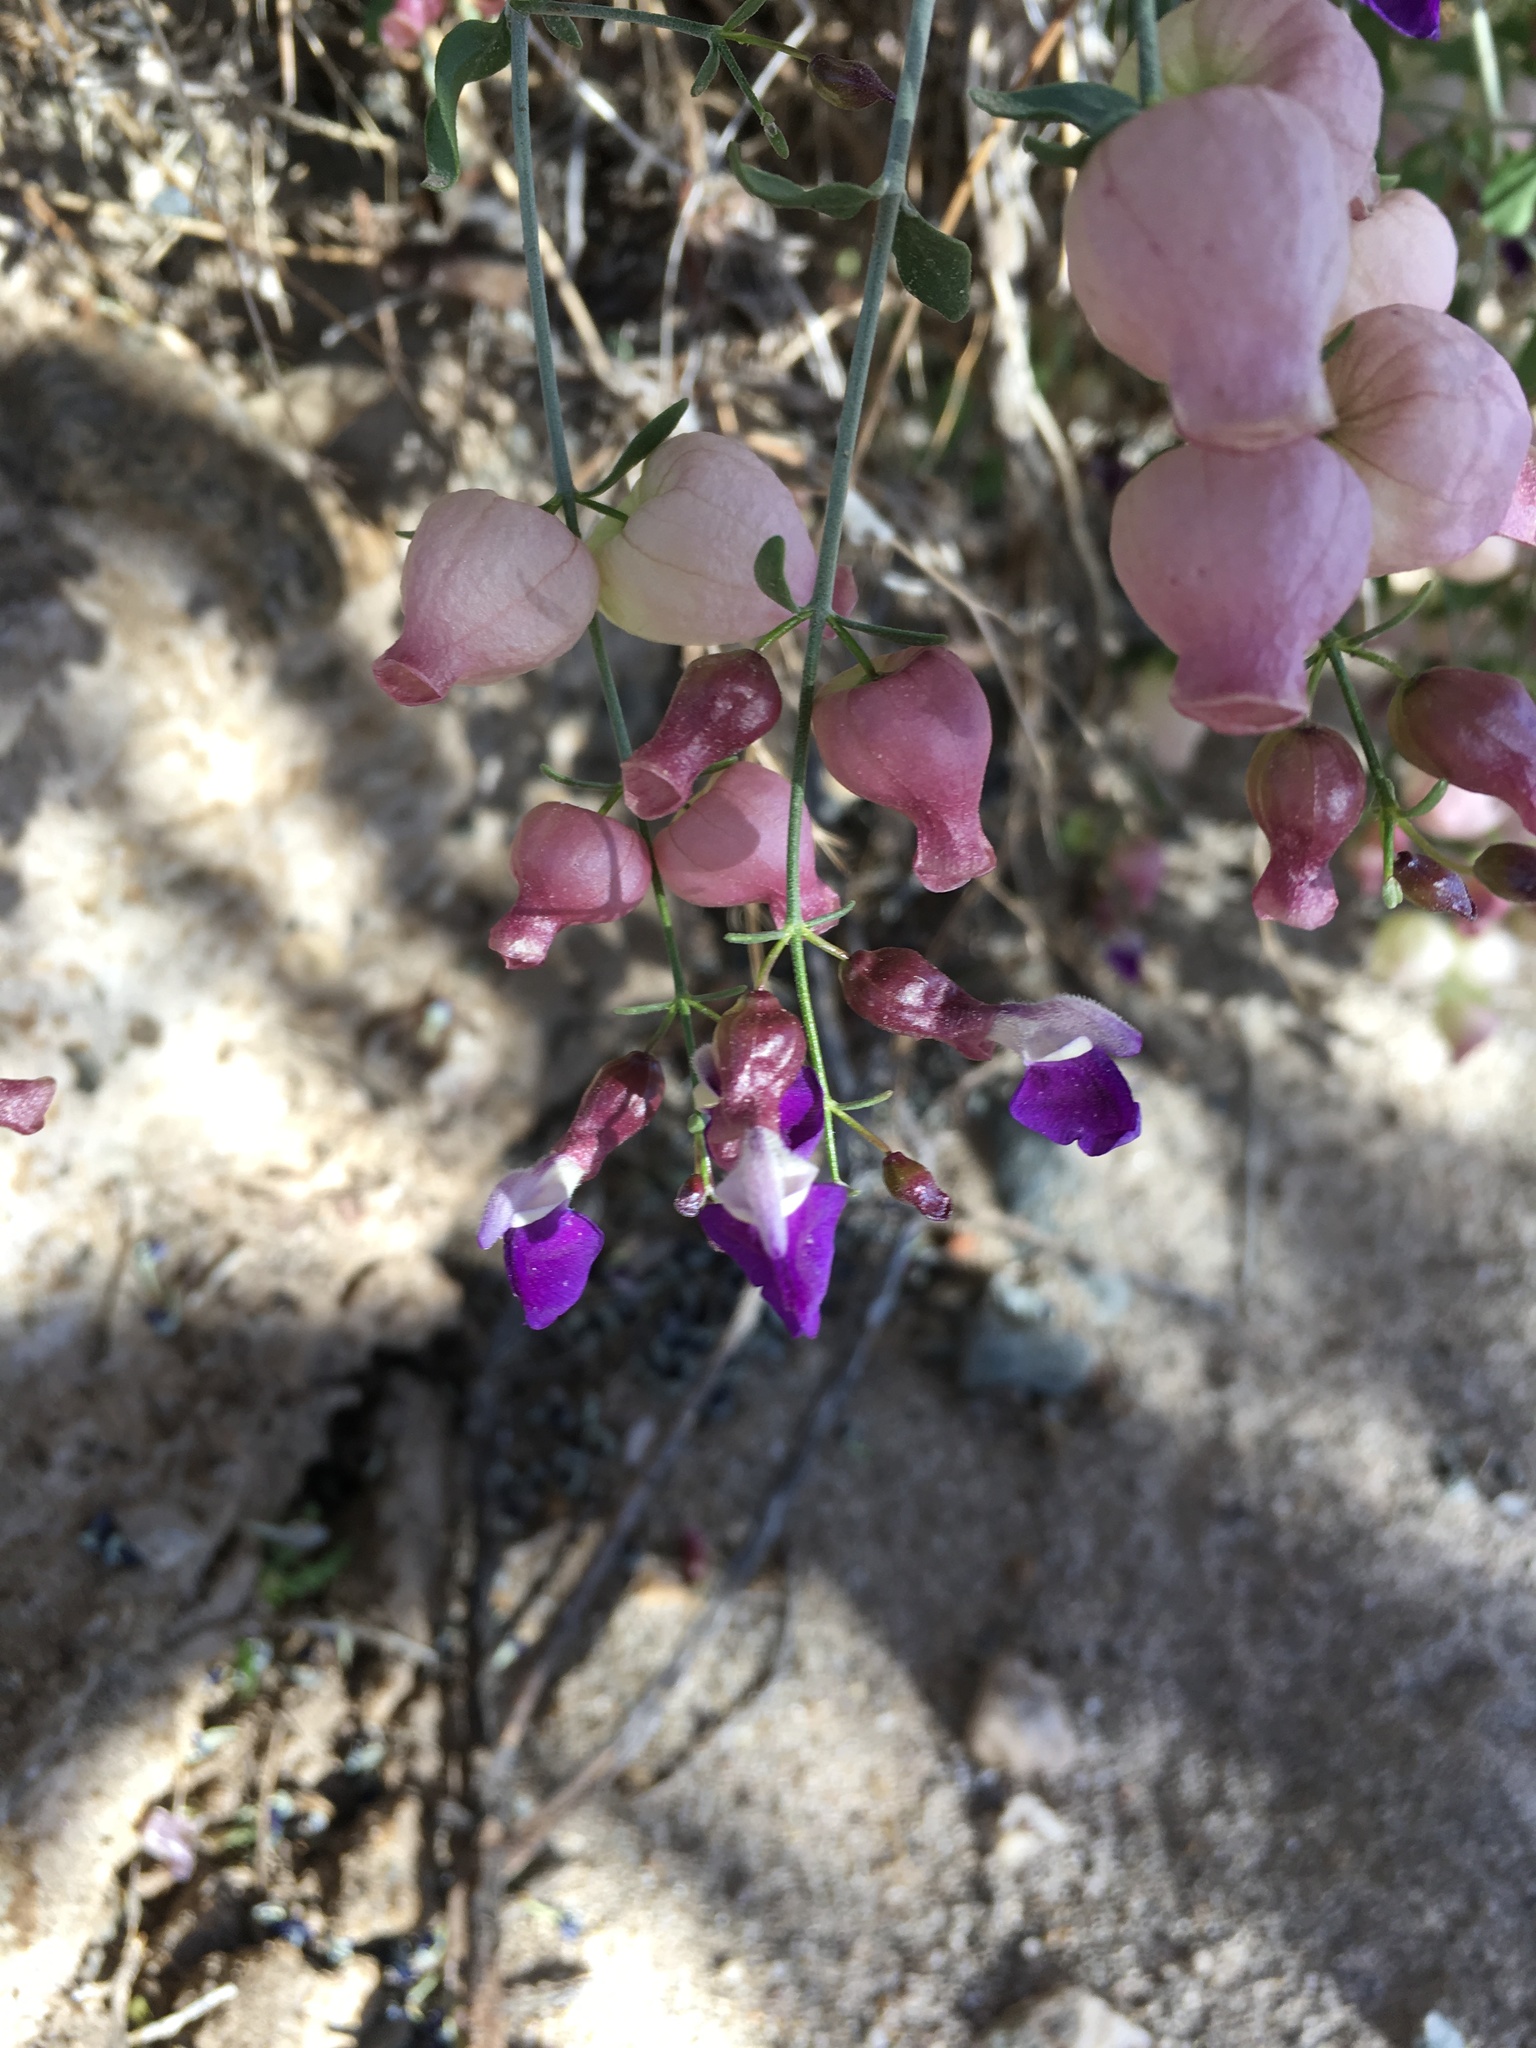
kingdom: Plantae
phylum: Tracheophyta
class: Magnoliopsida
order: Lamiales
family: Lamiaceae
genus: Scutellaria
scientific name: Scutellaria mexicana
